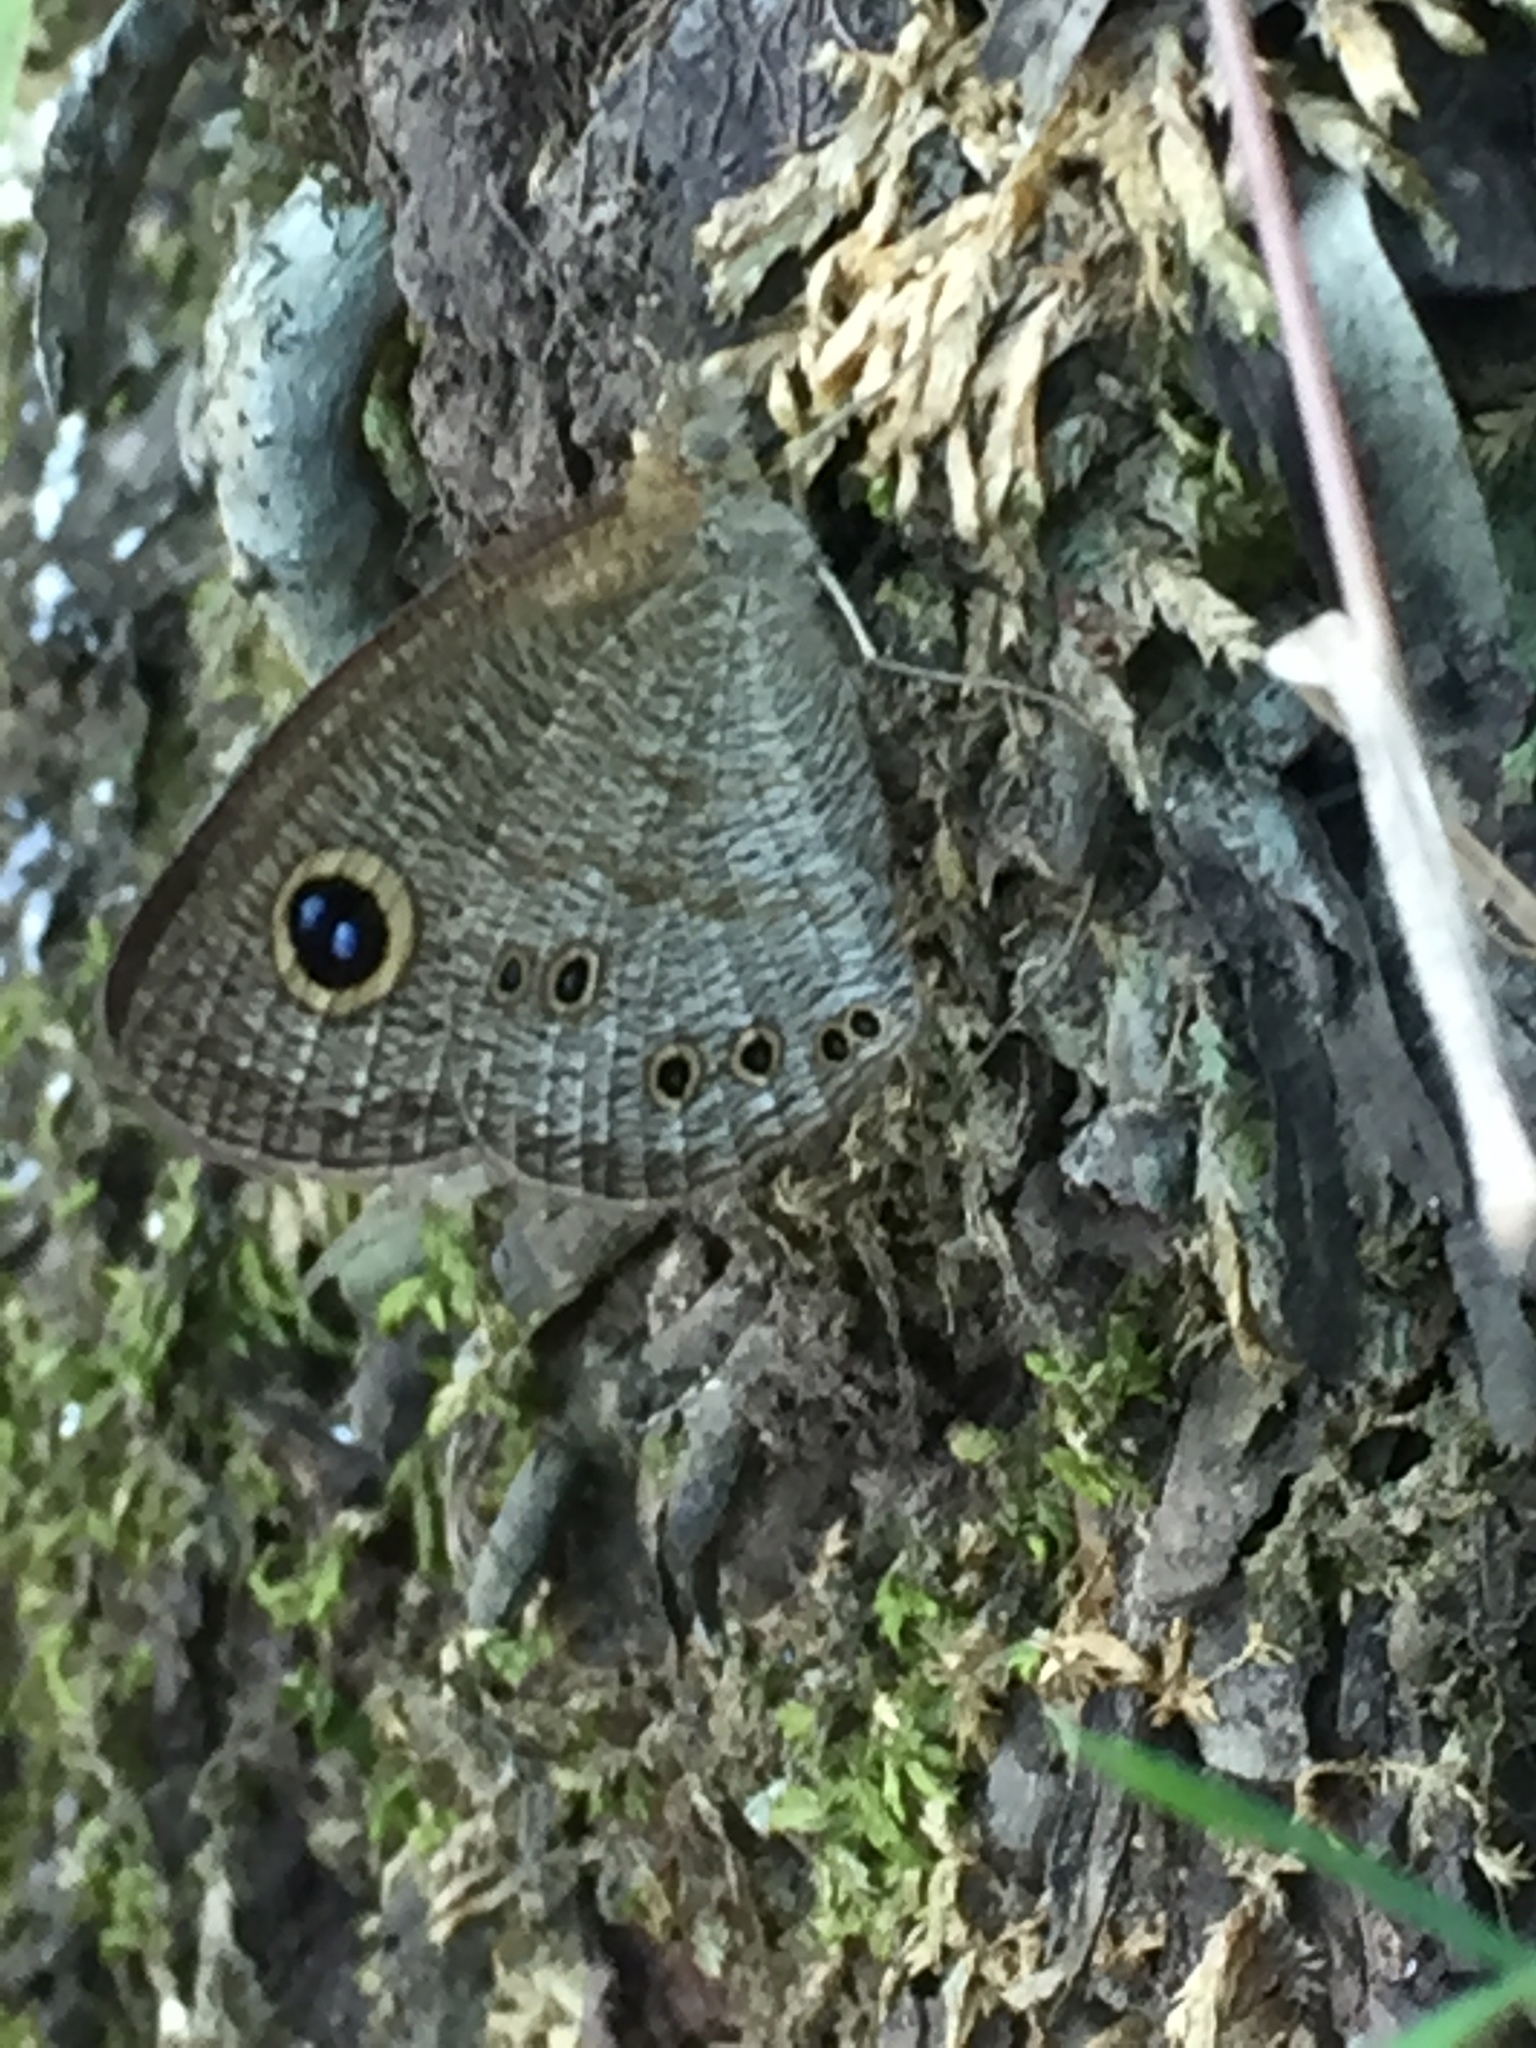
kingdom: Animalia
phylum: Arthropoda
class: Insecta
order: Lepidoptera
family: Nymphalidae
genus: Ypthima
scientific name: Ypthima baldus
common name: Common five-ring
